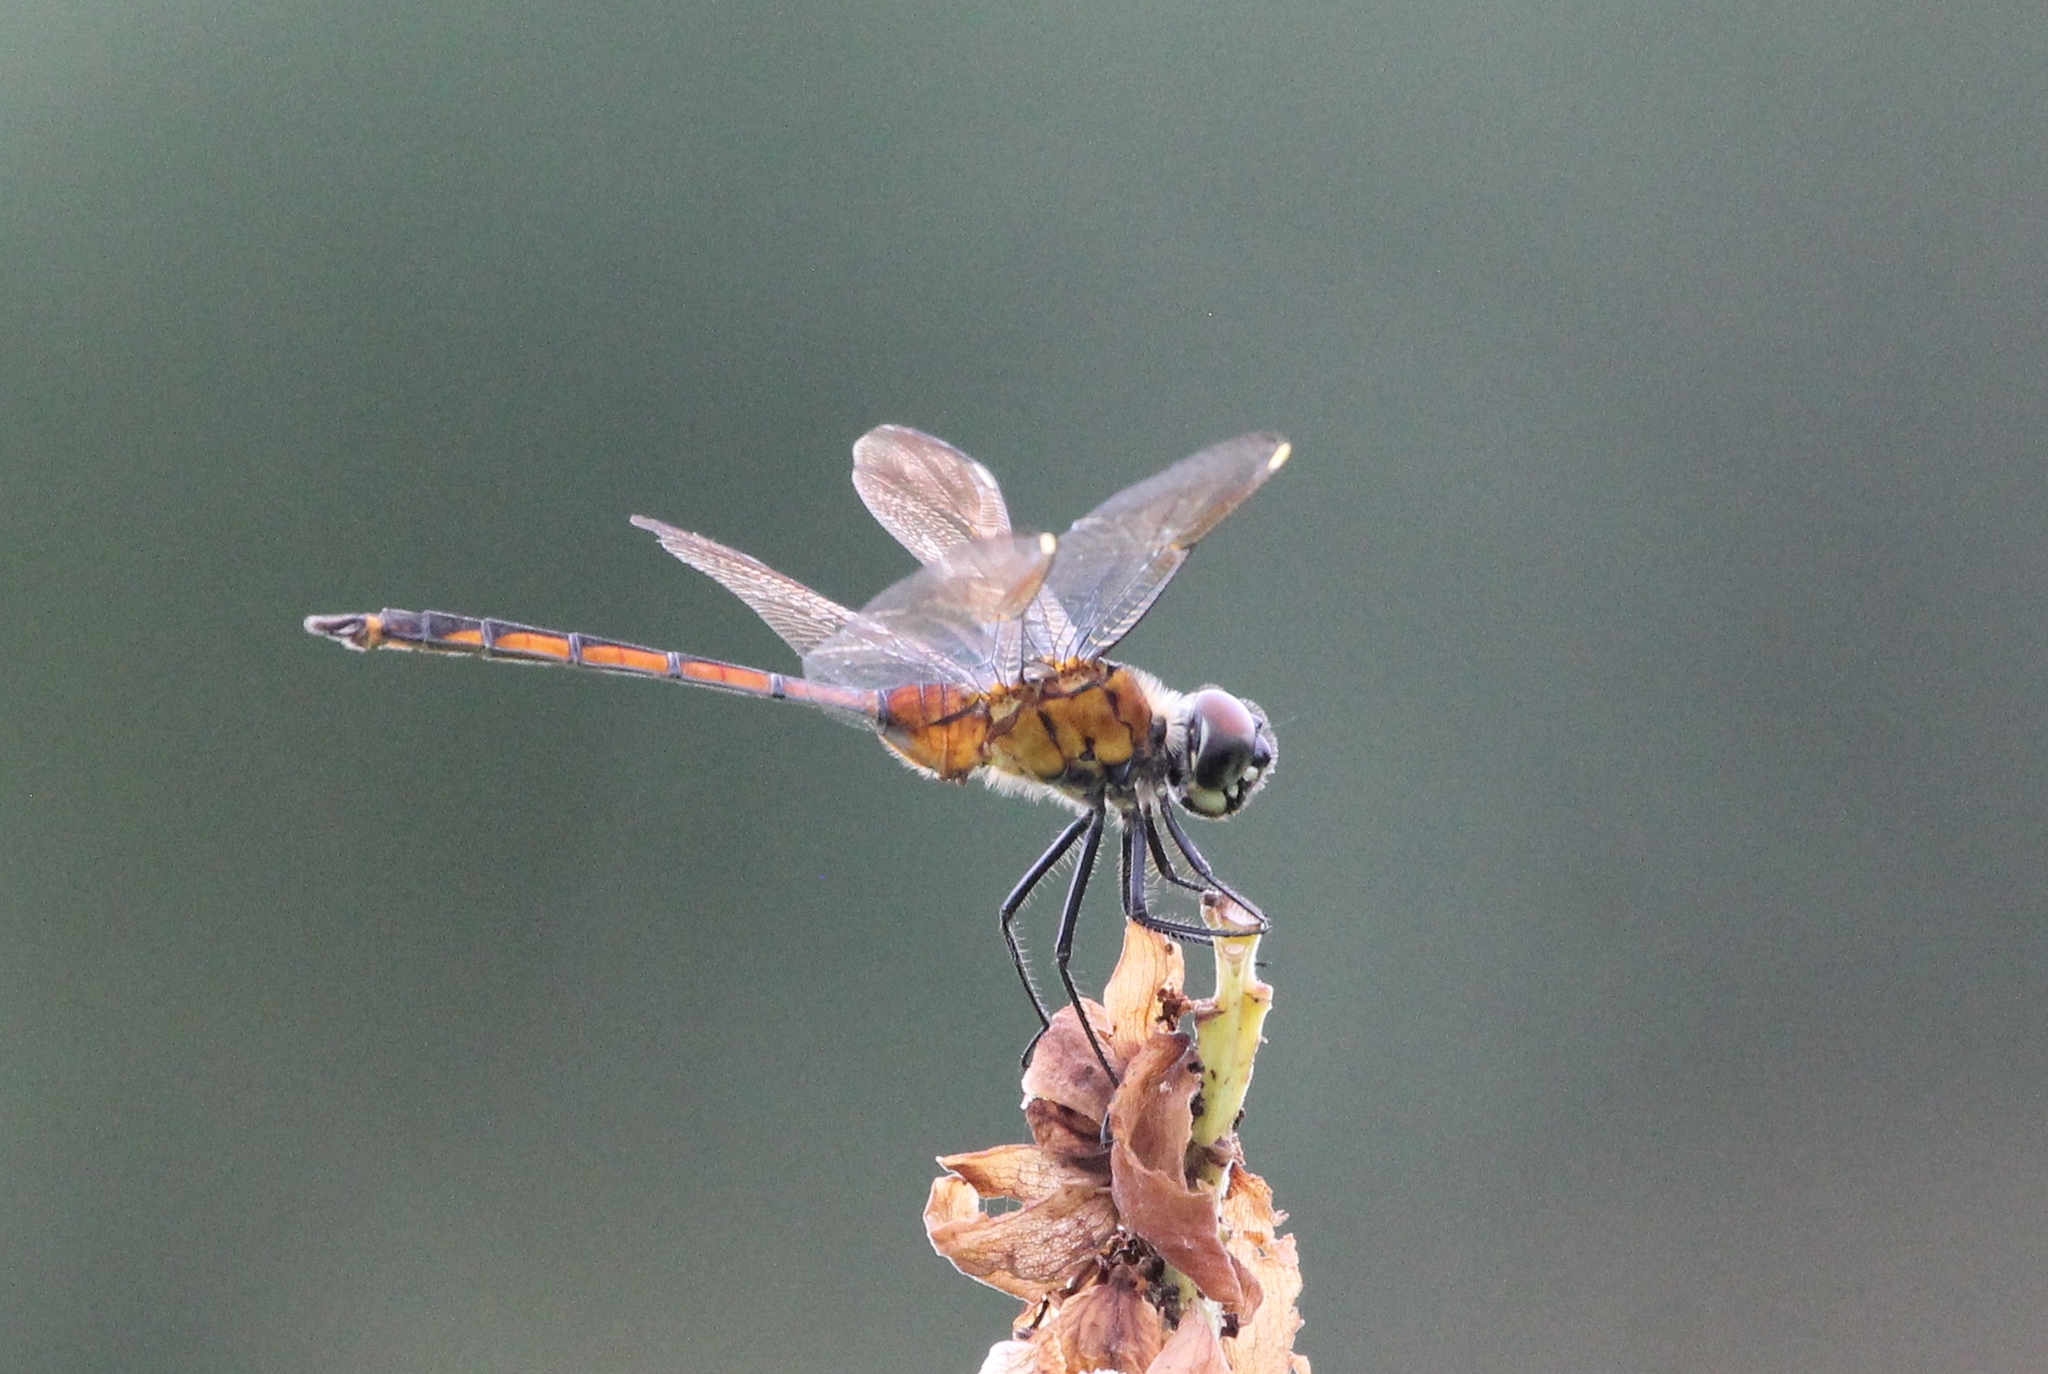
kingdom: Animalia
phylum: Arthropoda
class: Insecta
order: Odonata
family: Libellulidae
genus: Brachymesia
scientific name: Brachymesia gravida
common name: Four-spotted pennant
